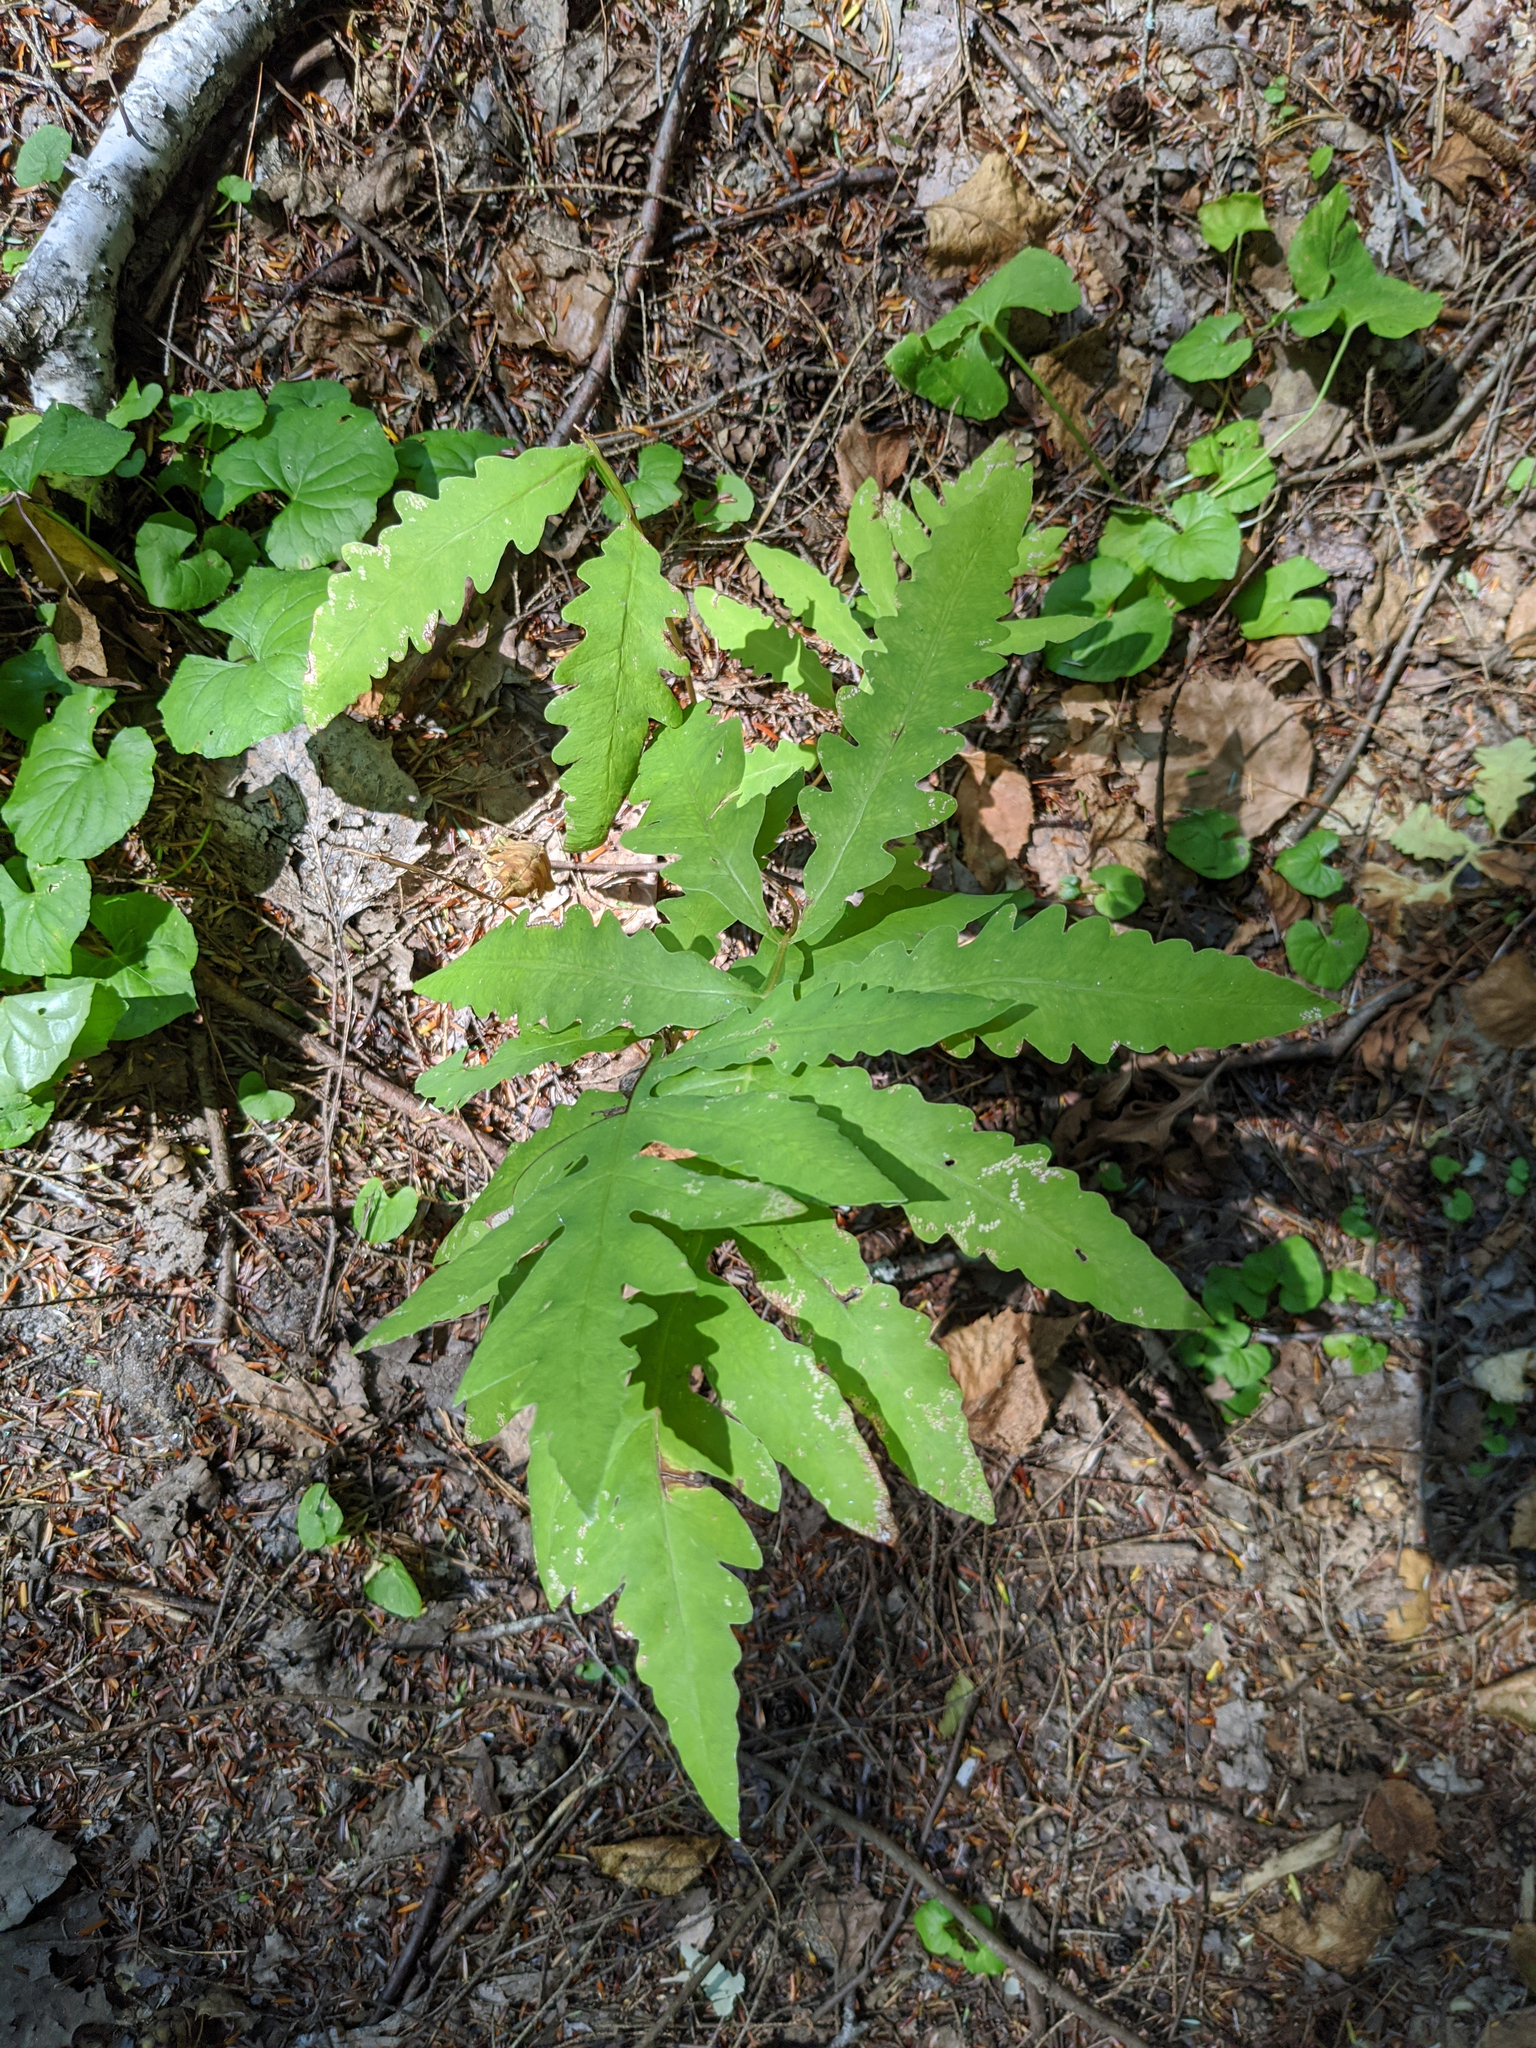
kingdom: Plantae
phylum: Tracheophyta
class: Polypodiopsida
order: Polypodiales
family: Onocleaceae
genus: Onoclea
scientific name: Onoclea sensibilis
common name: Sensitive fern
